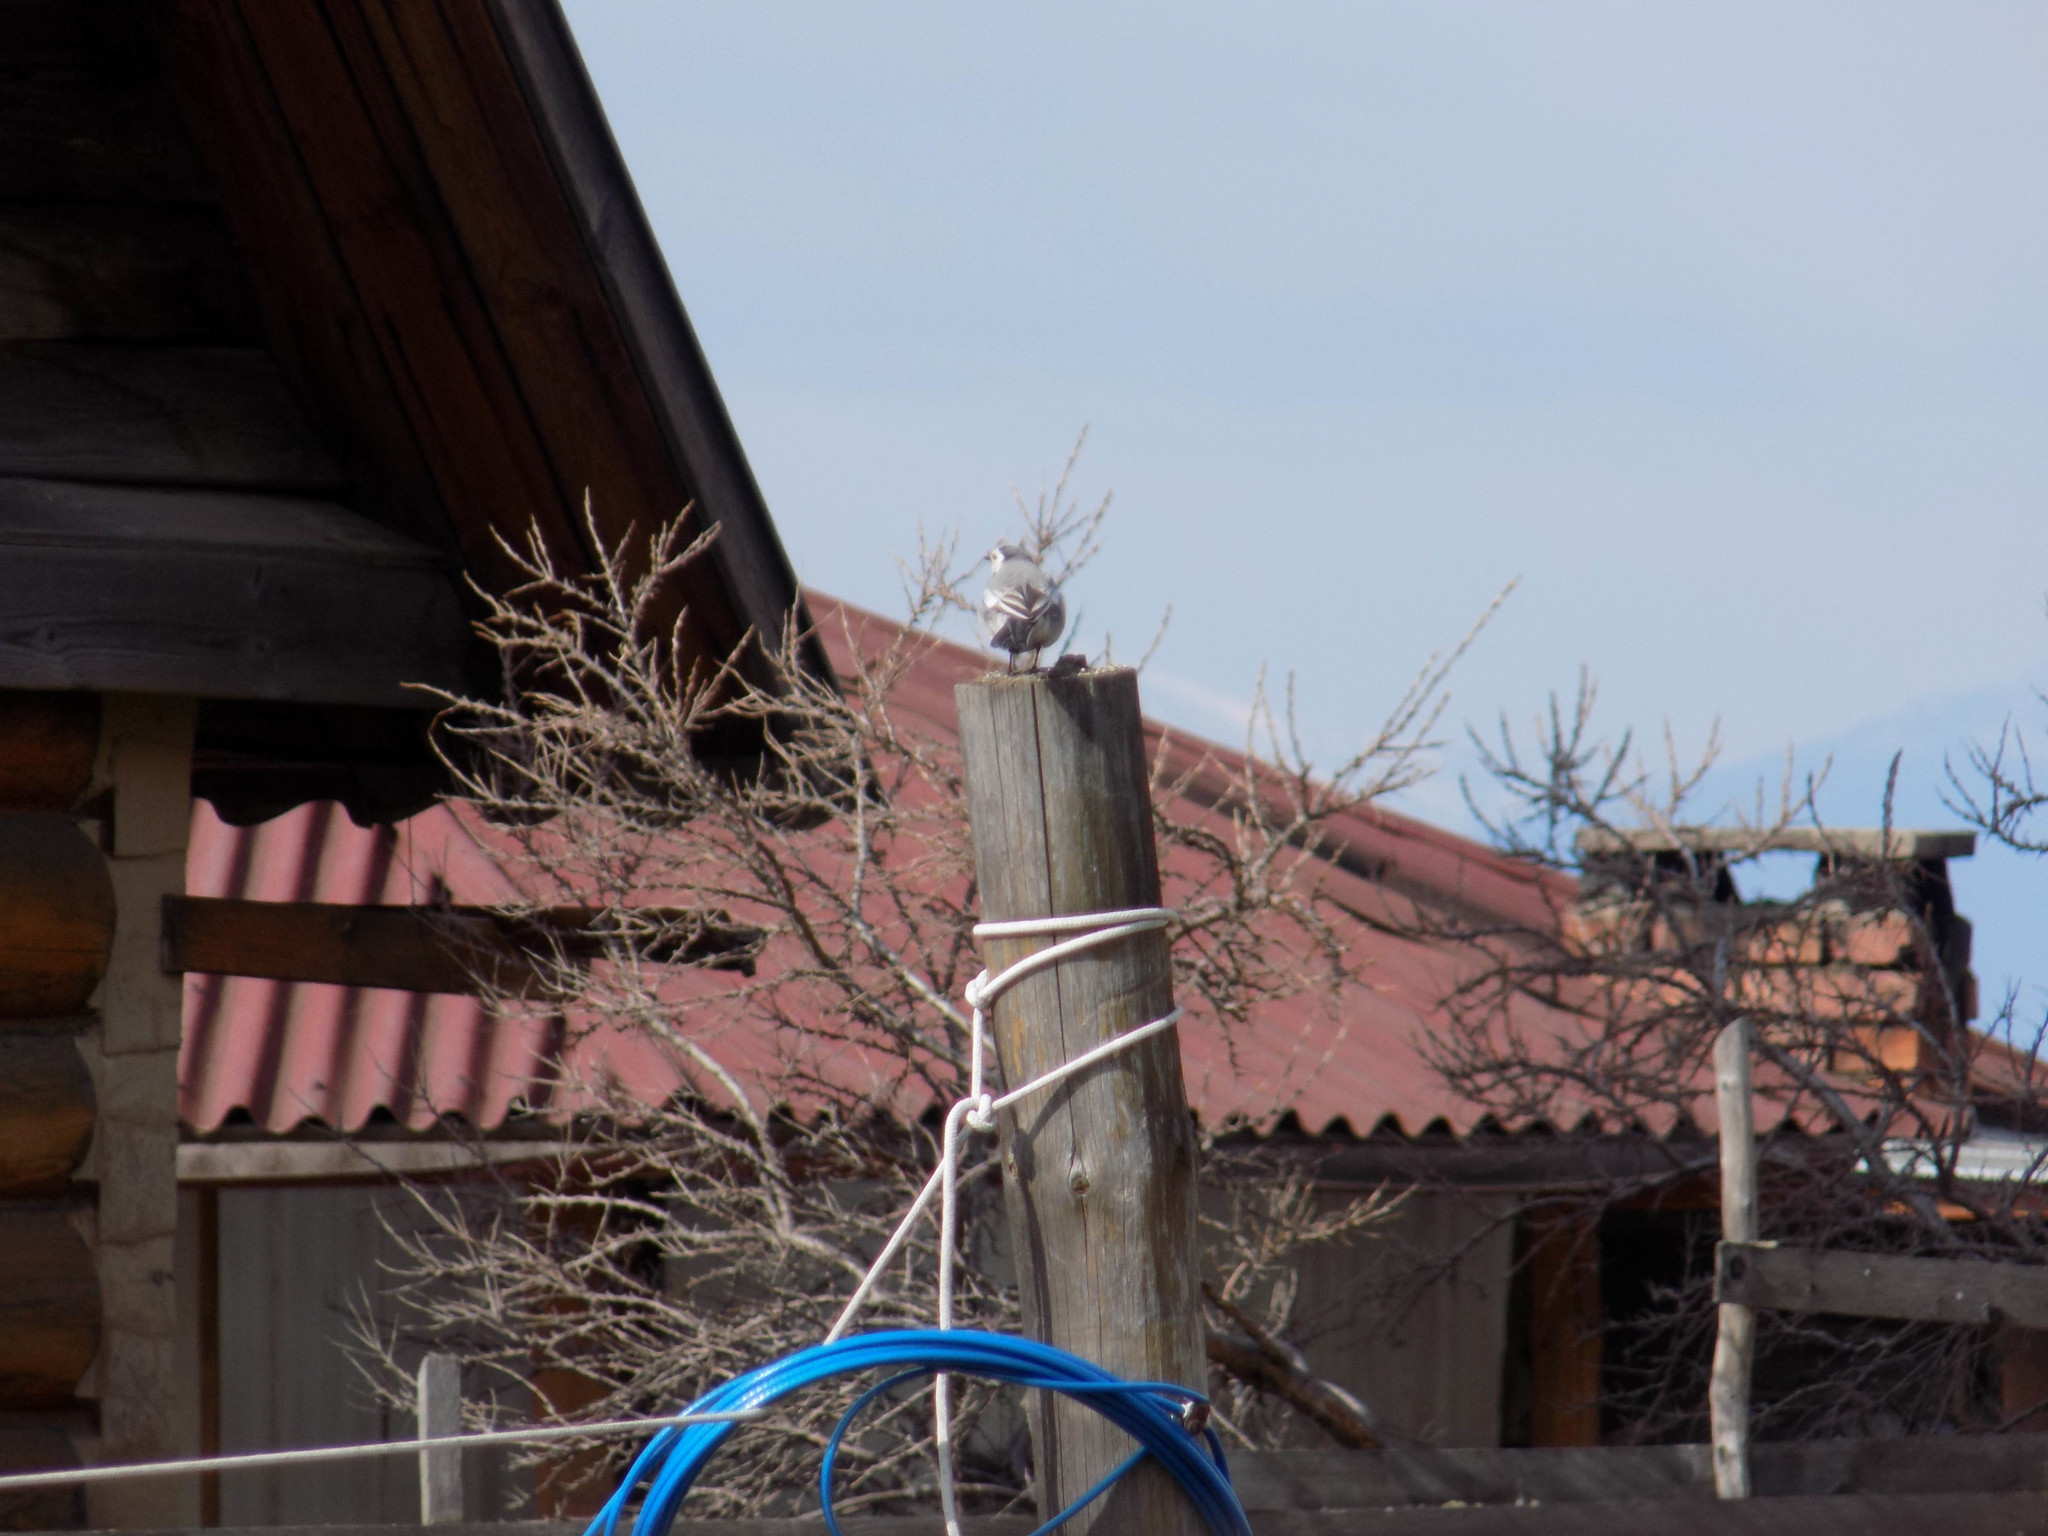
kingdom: Animalia
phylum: Chordata
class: Aves
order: Passeriformes
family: Motacillidae
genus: Motacilla
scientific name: Motacilla alba
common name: White wagtail
